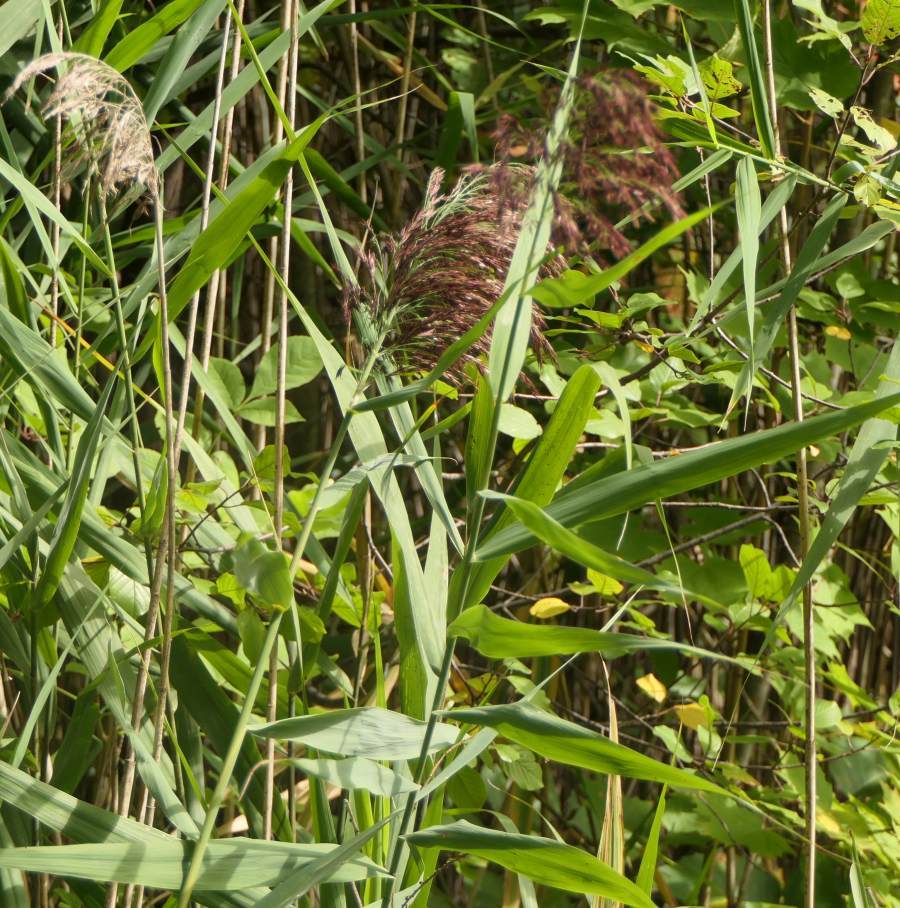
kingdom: Plantae
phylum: Tracheophyta
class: Liliopsida
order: Poales
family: Poaceae
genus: Phragmites
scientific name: Phragmites australis
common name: Common reed
